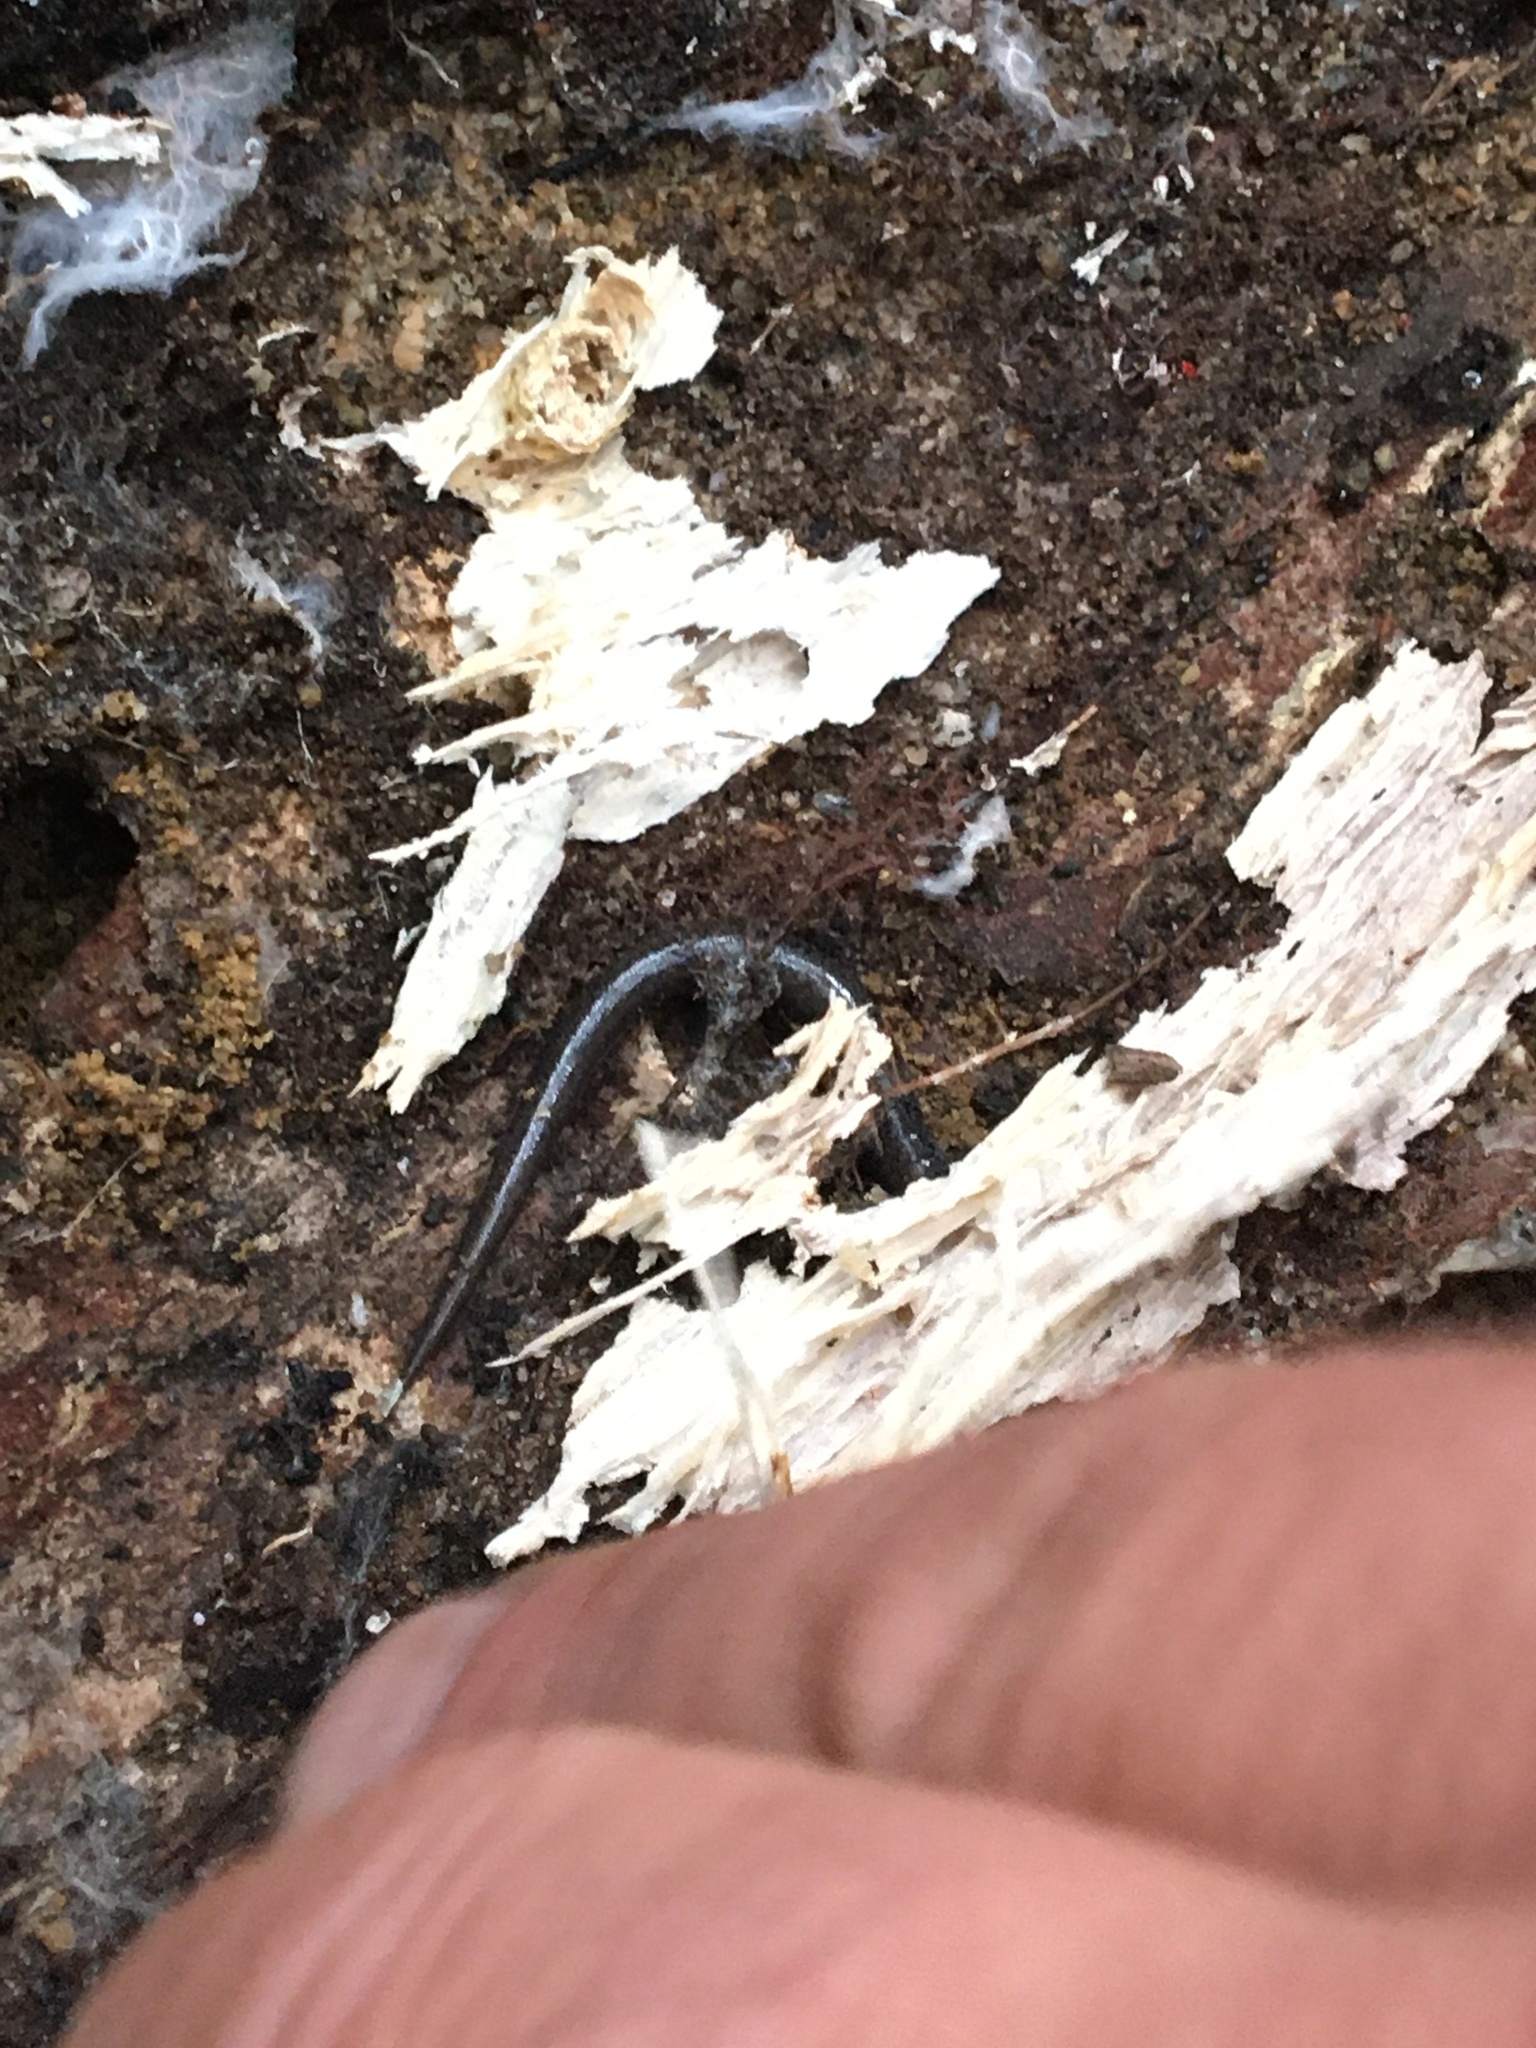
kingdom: Animalia
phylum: Chordata
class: Amphibia
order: Caudata
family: Plethodontidae
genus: Plethodon
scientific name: Plethodon cinereus
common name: Redback salamander
